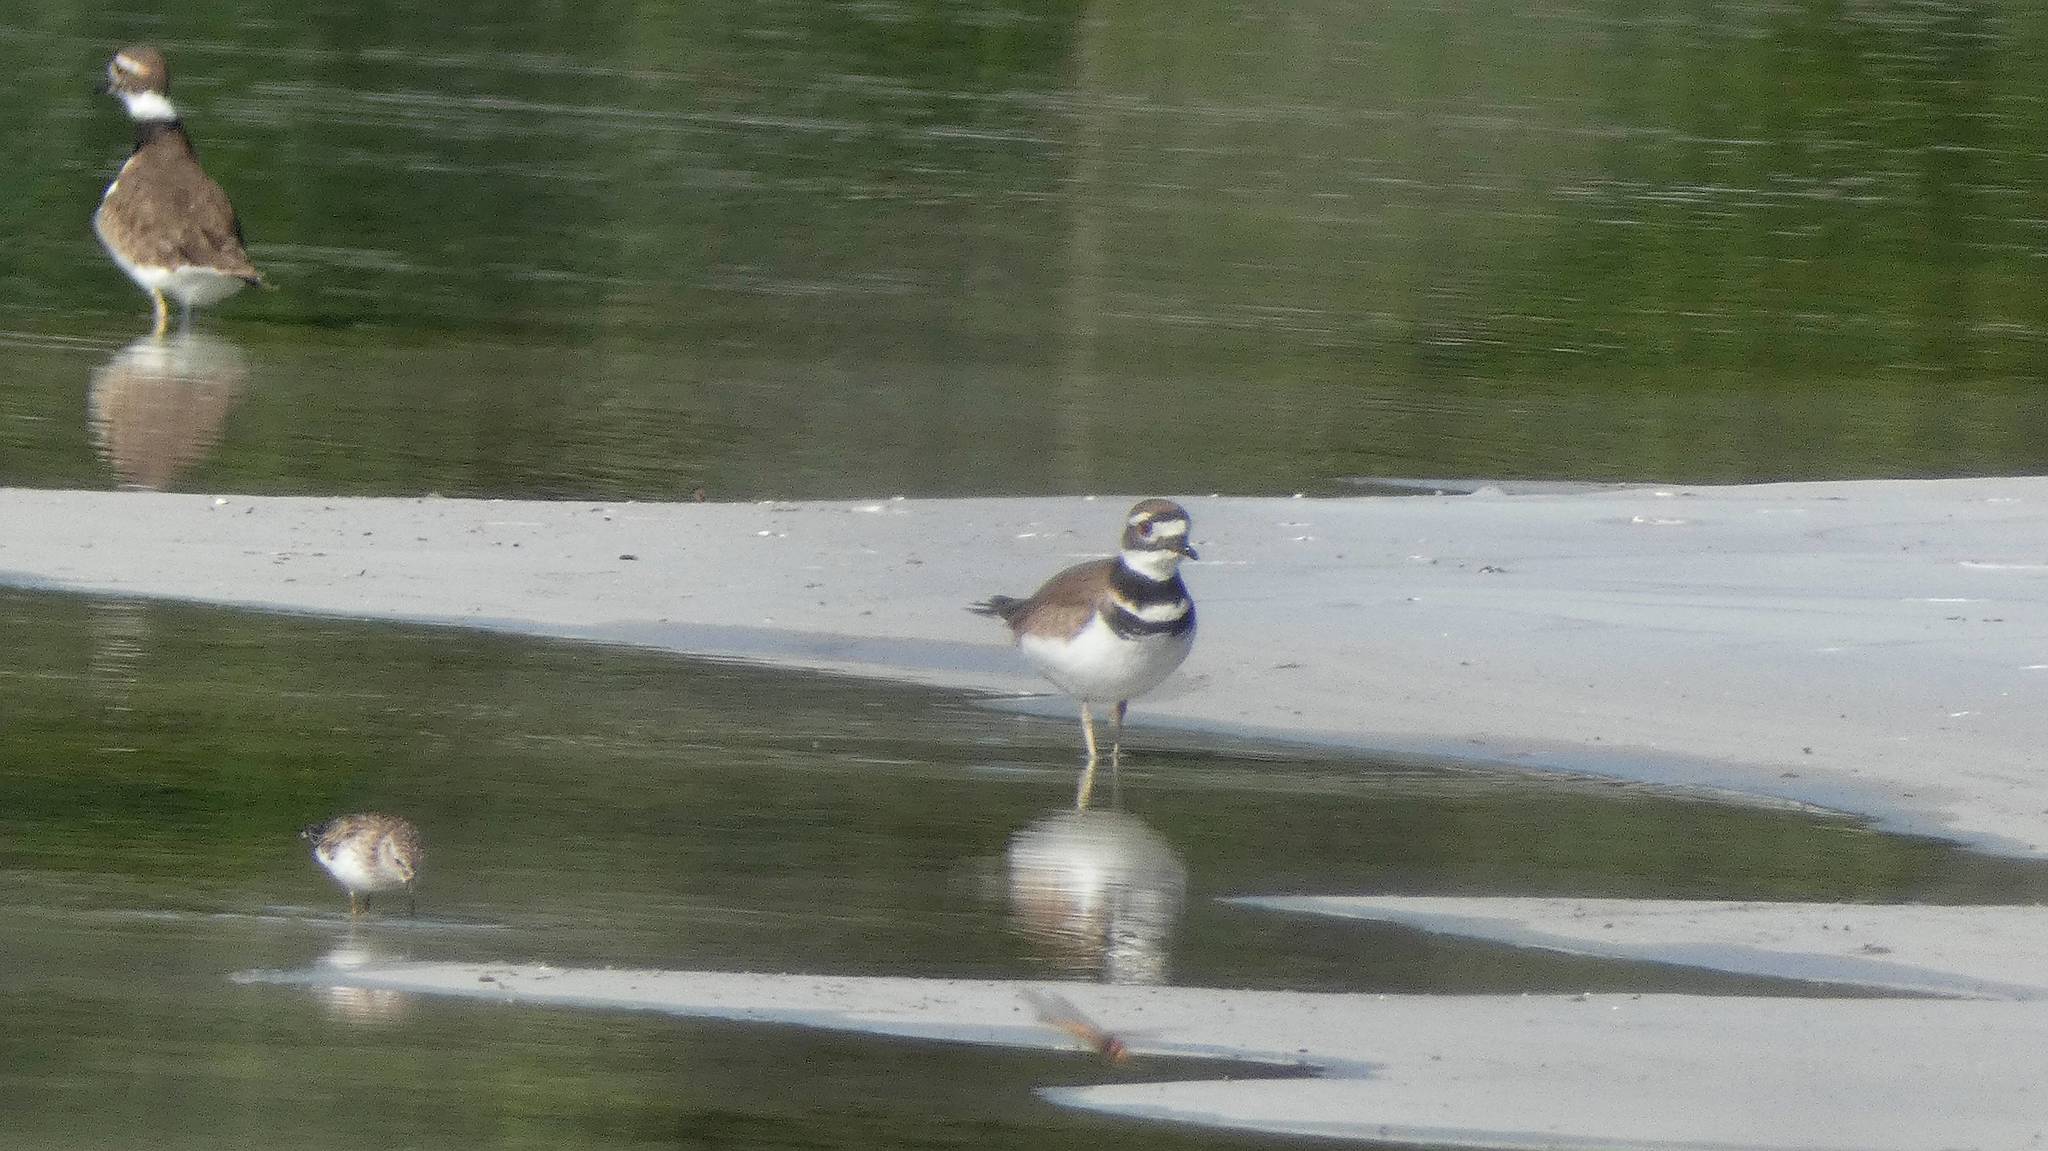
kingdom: Animalia
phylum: Chordata
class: Aves
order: Charadriiformes
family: Charadriidae
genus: Charadrius
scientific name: Charadrius vociferus
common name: Killdeer
